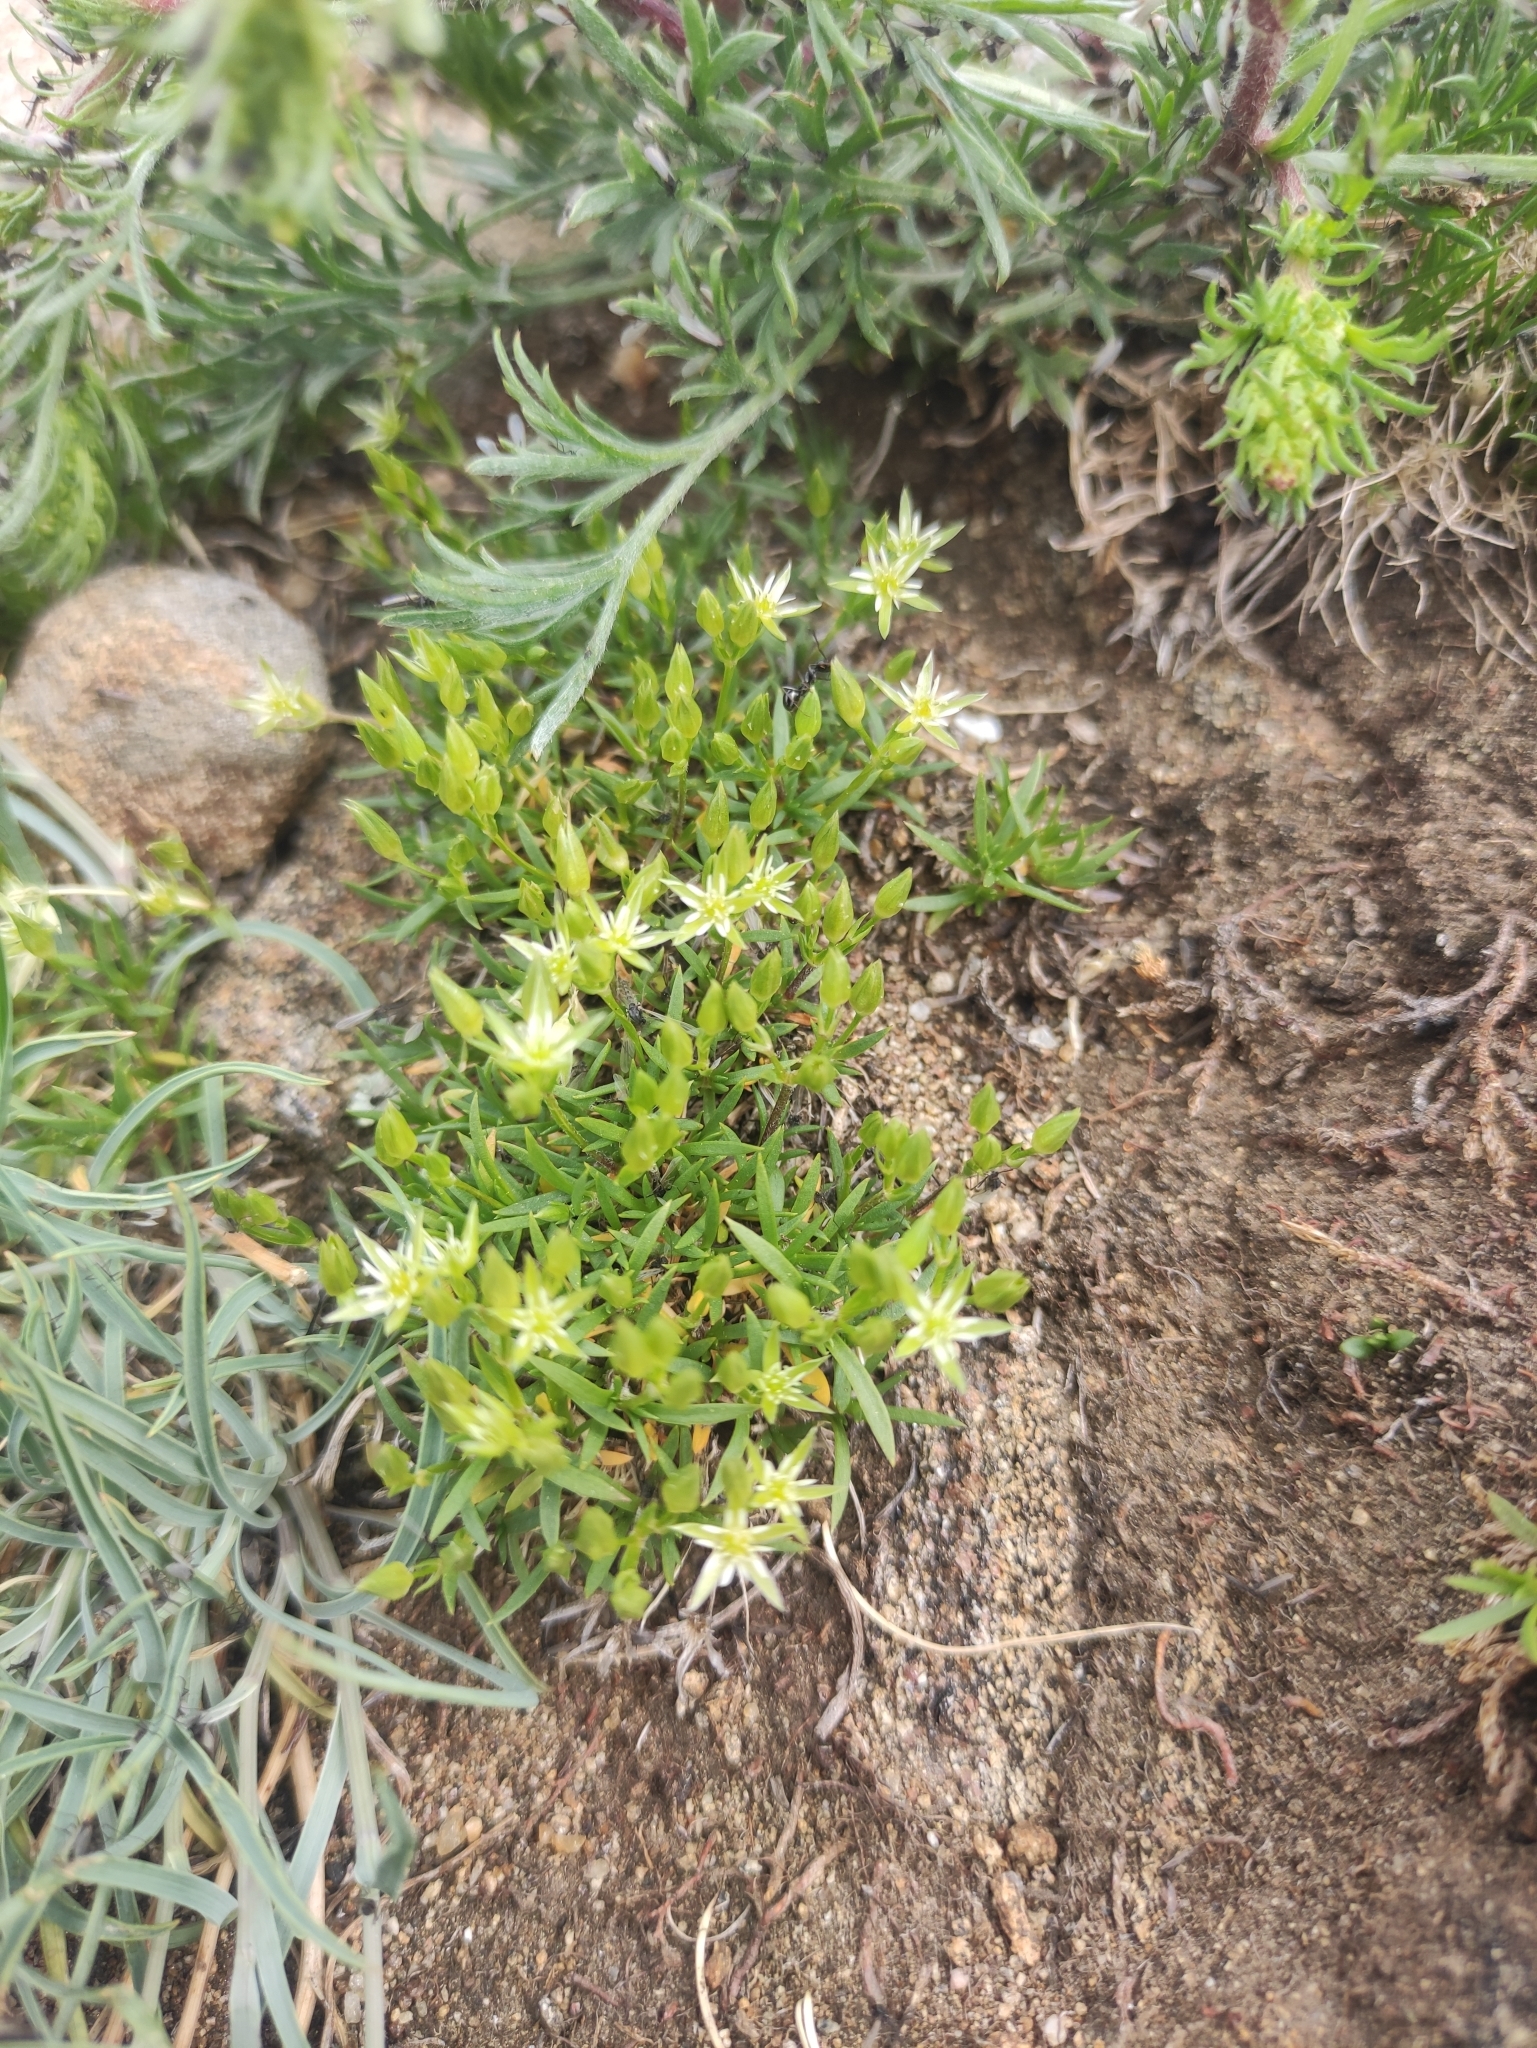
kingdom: Plantae
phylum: Tracheophyta
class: Magnoliopsida
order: Caryophyllales
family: Caryophyllaceae
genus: Adenonema
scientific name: Adenonema cherleriae
